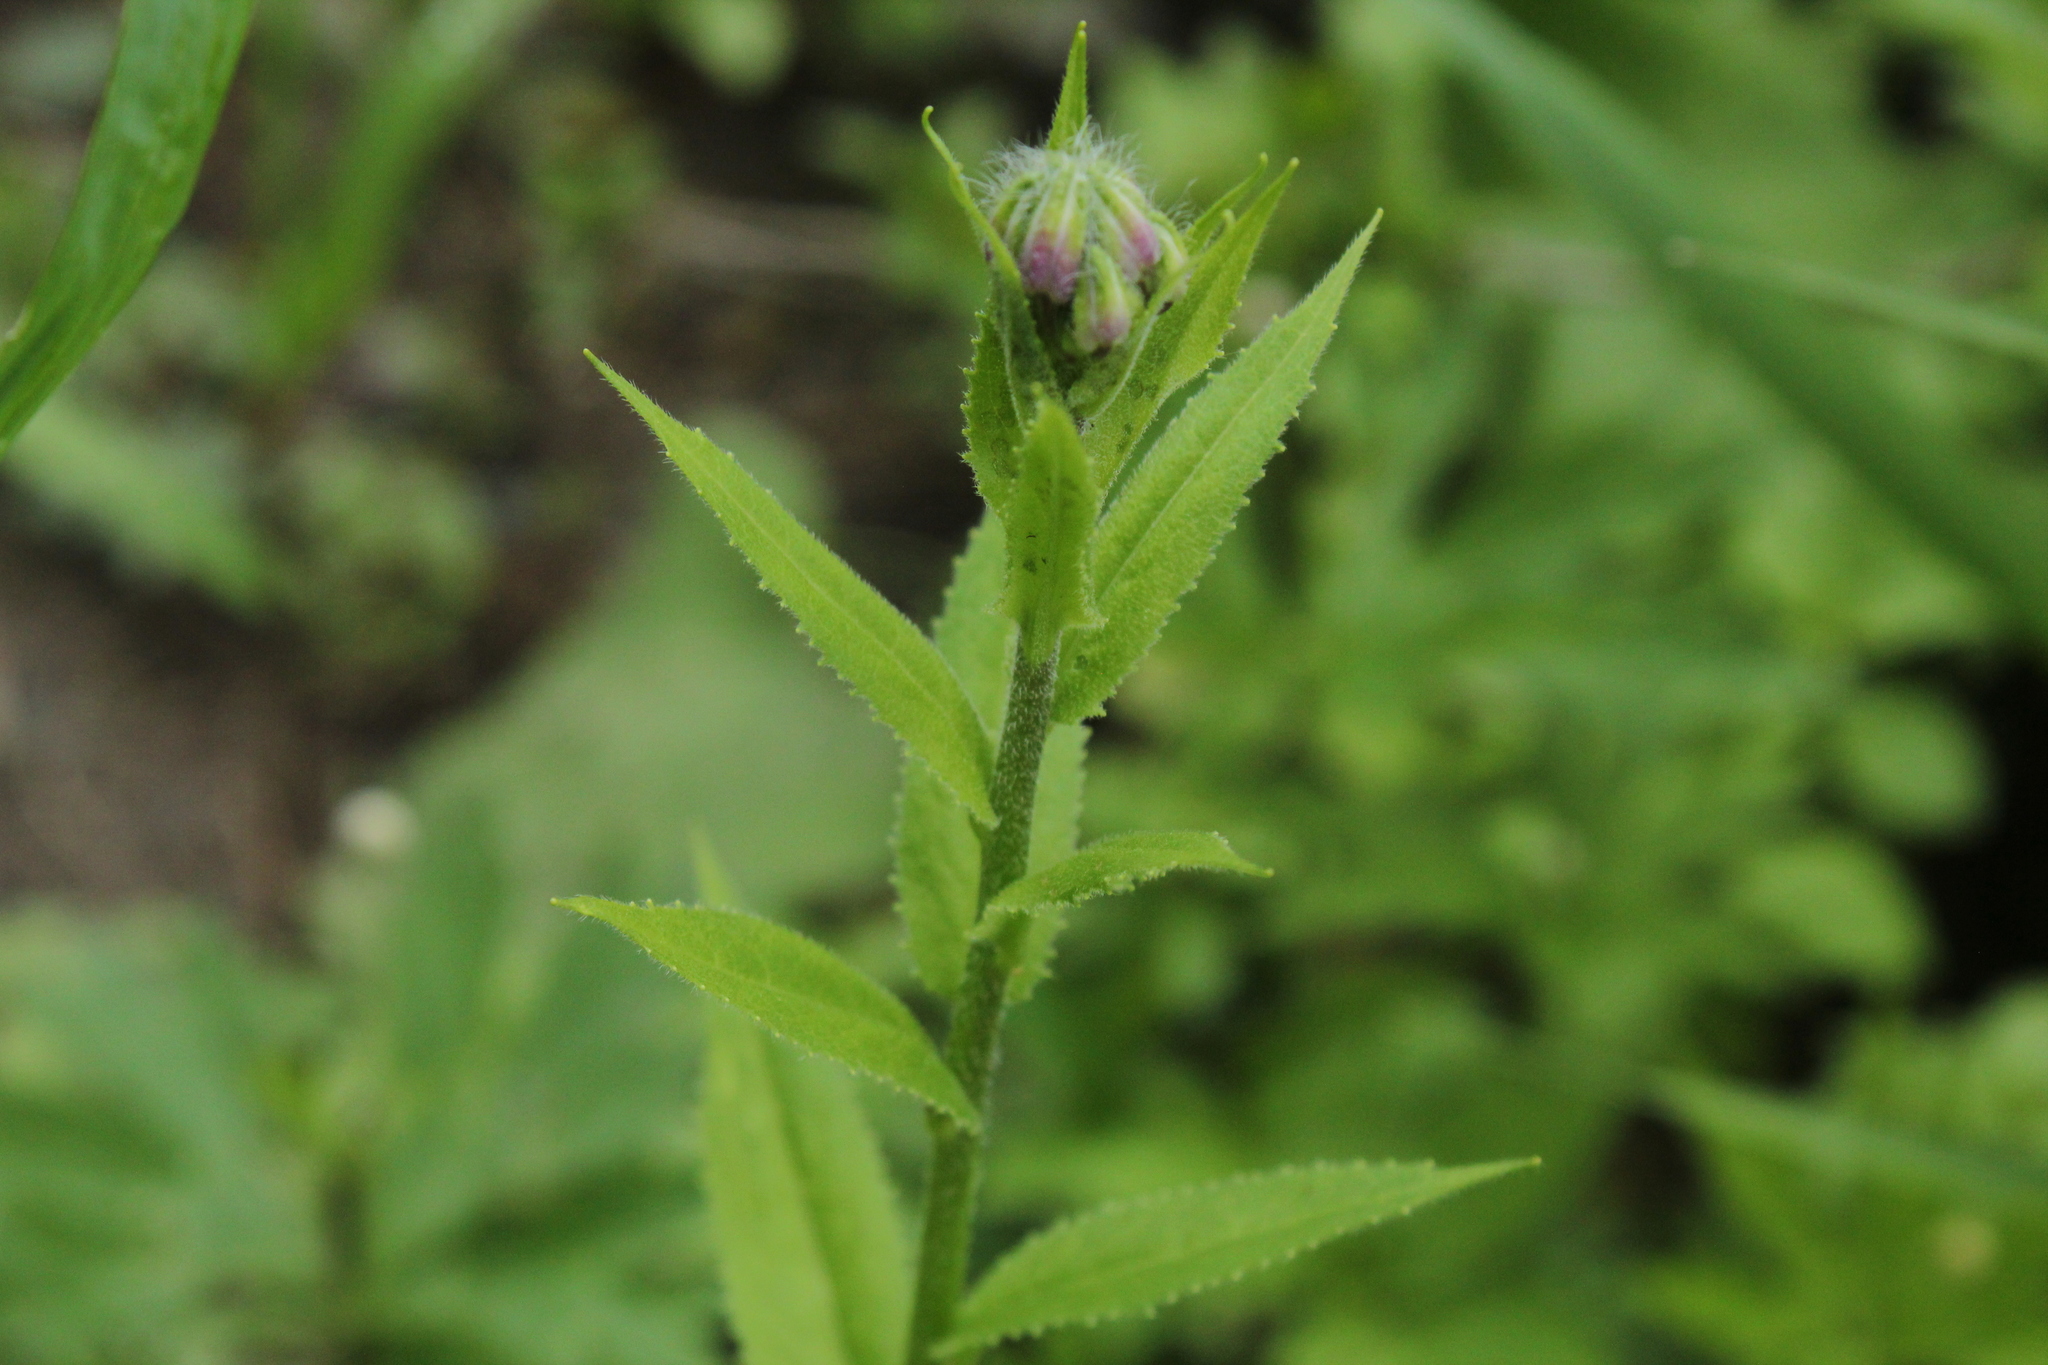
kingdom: Plantae
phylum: Tracheophyta
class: Magnoliopsida
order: Brassicales
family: Brassicaceae
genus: Hesperis
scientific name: Hesperis matronalis
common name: Dame's-violet
